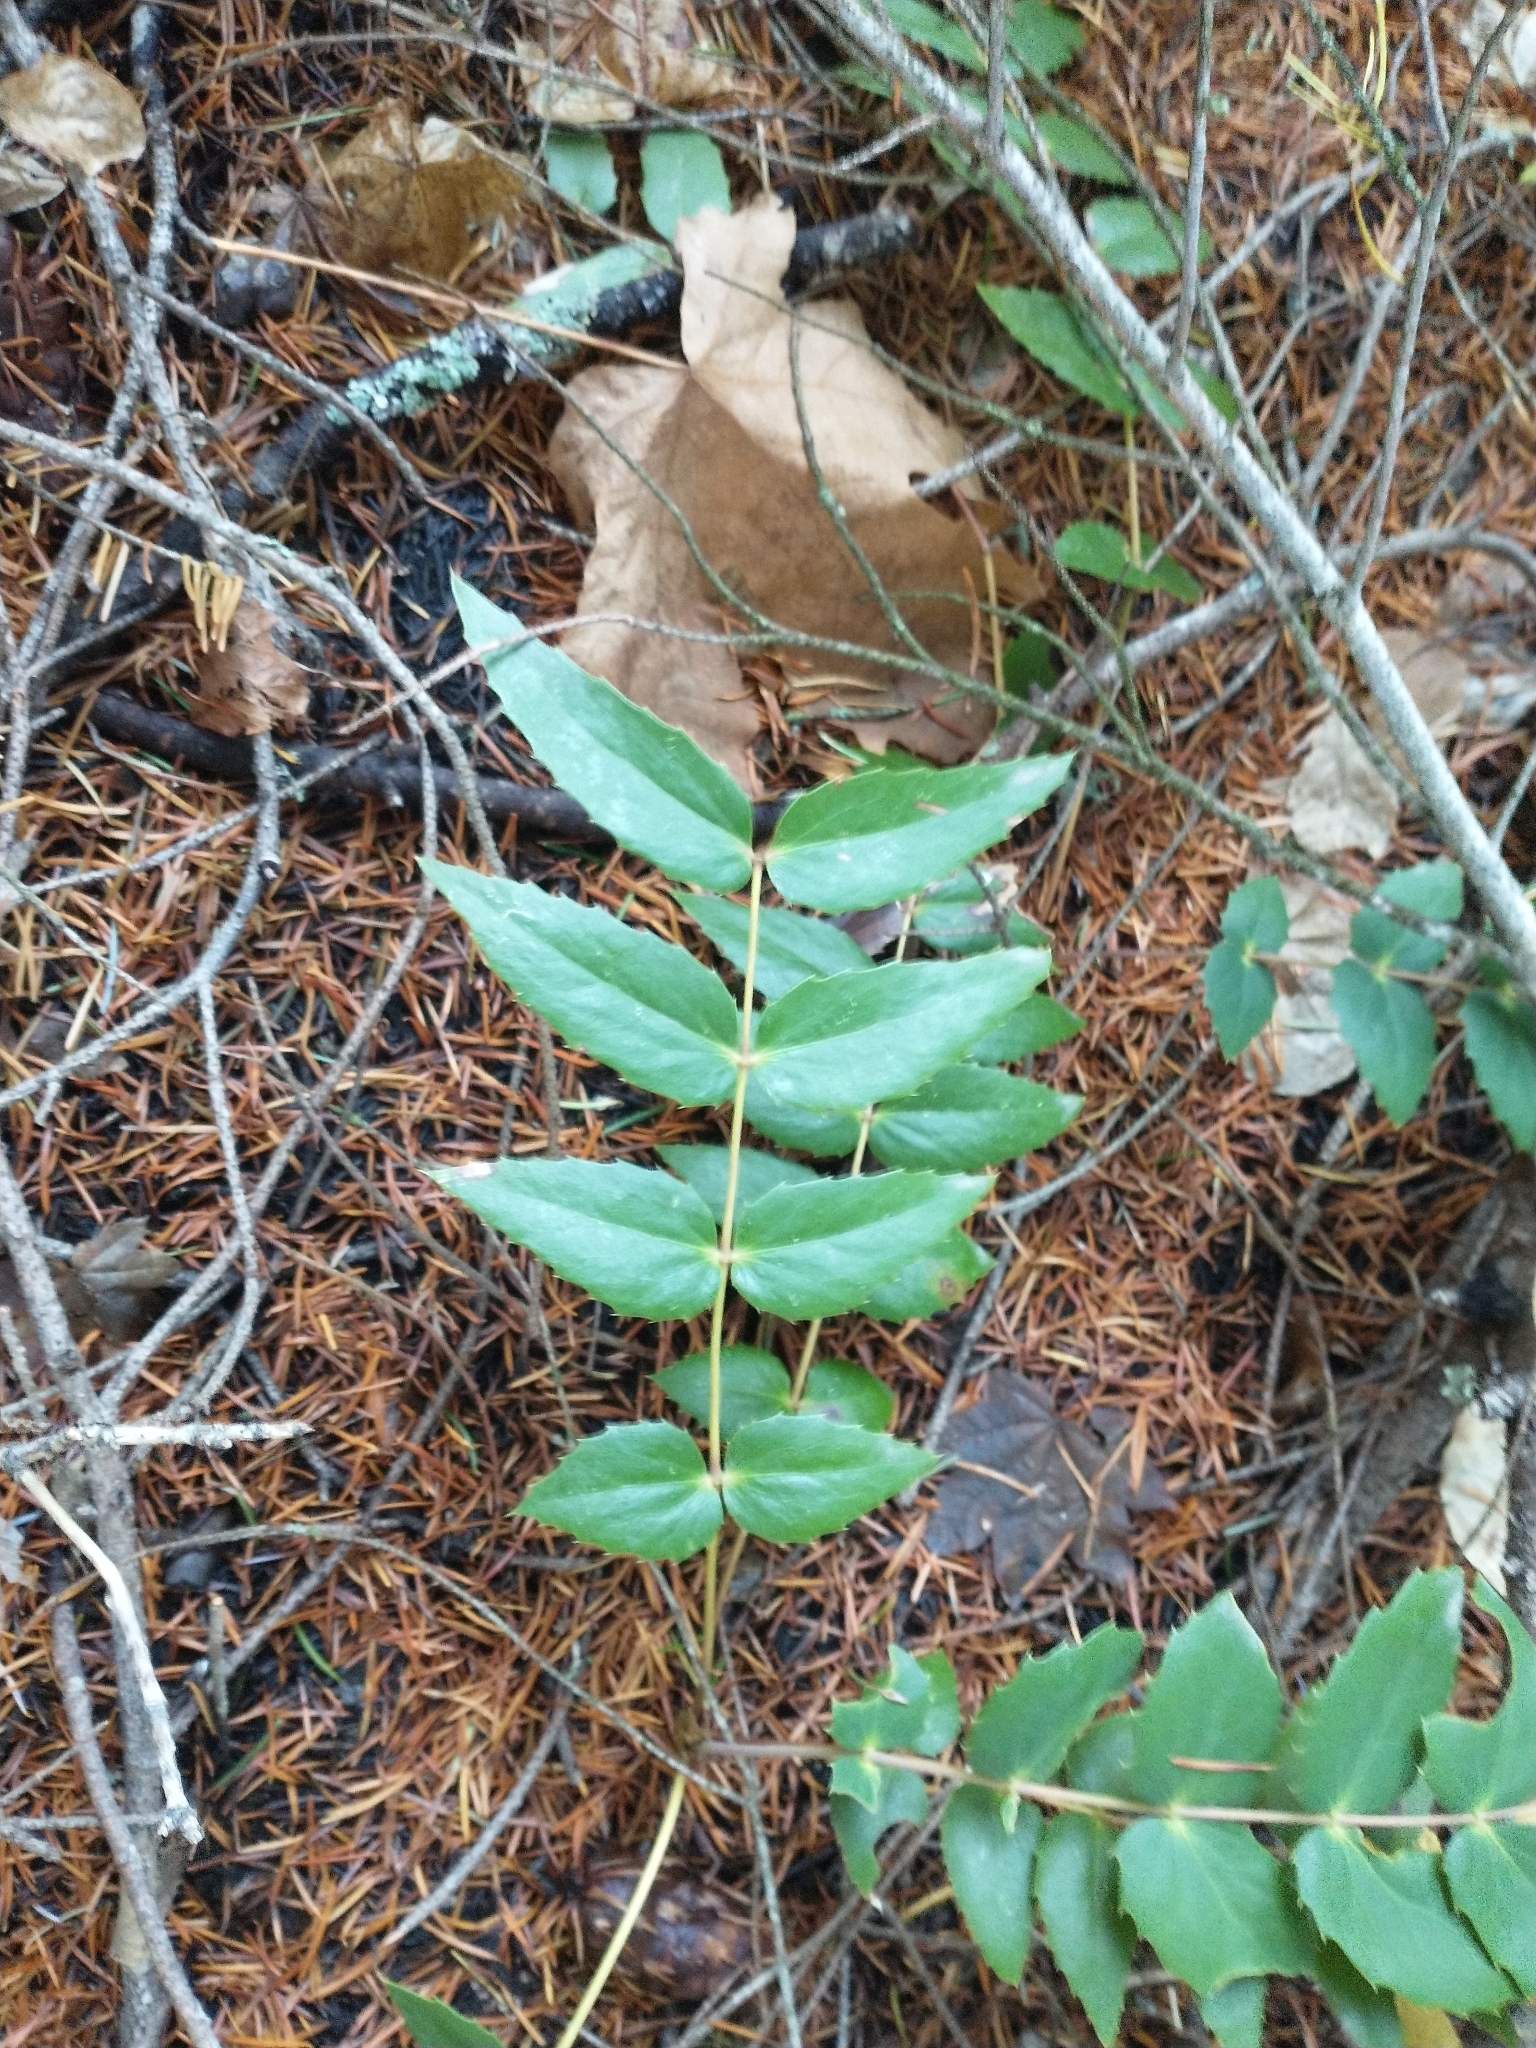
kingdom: Plantae
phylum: Tracheophyta
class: Magnoliopsida
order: Ranunculales
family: Berberidaceae
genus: Mahonia
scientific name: Mahonia nervosa
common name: Cascade oregon-grape
